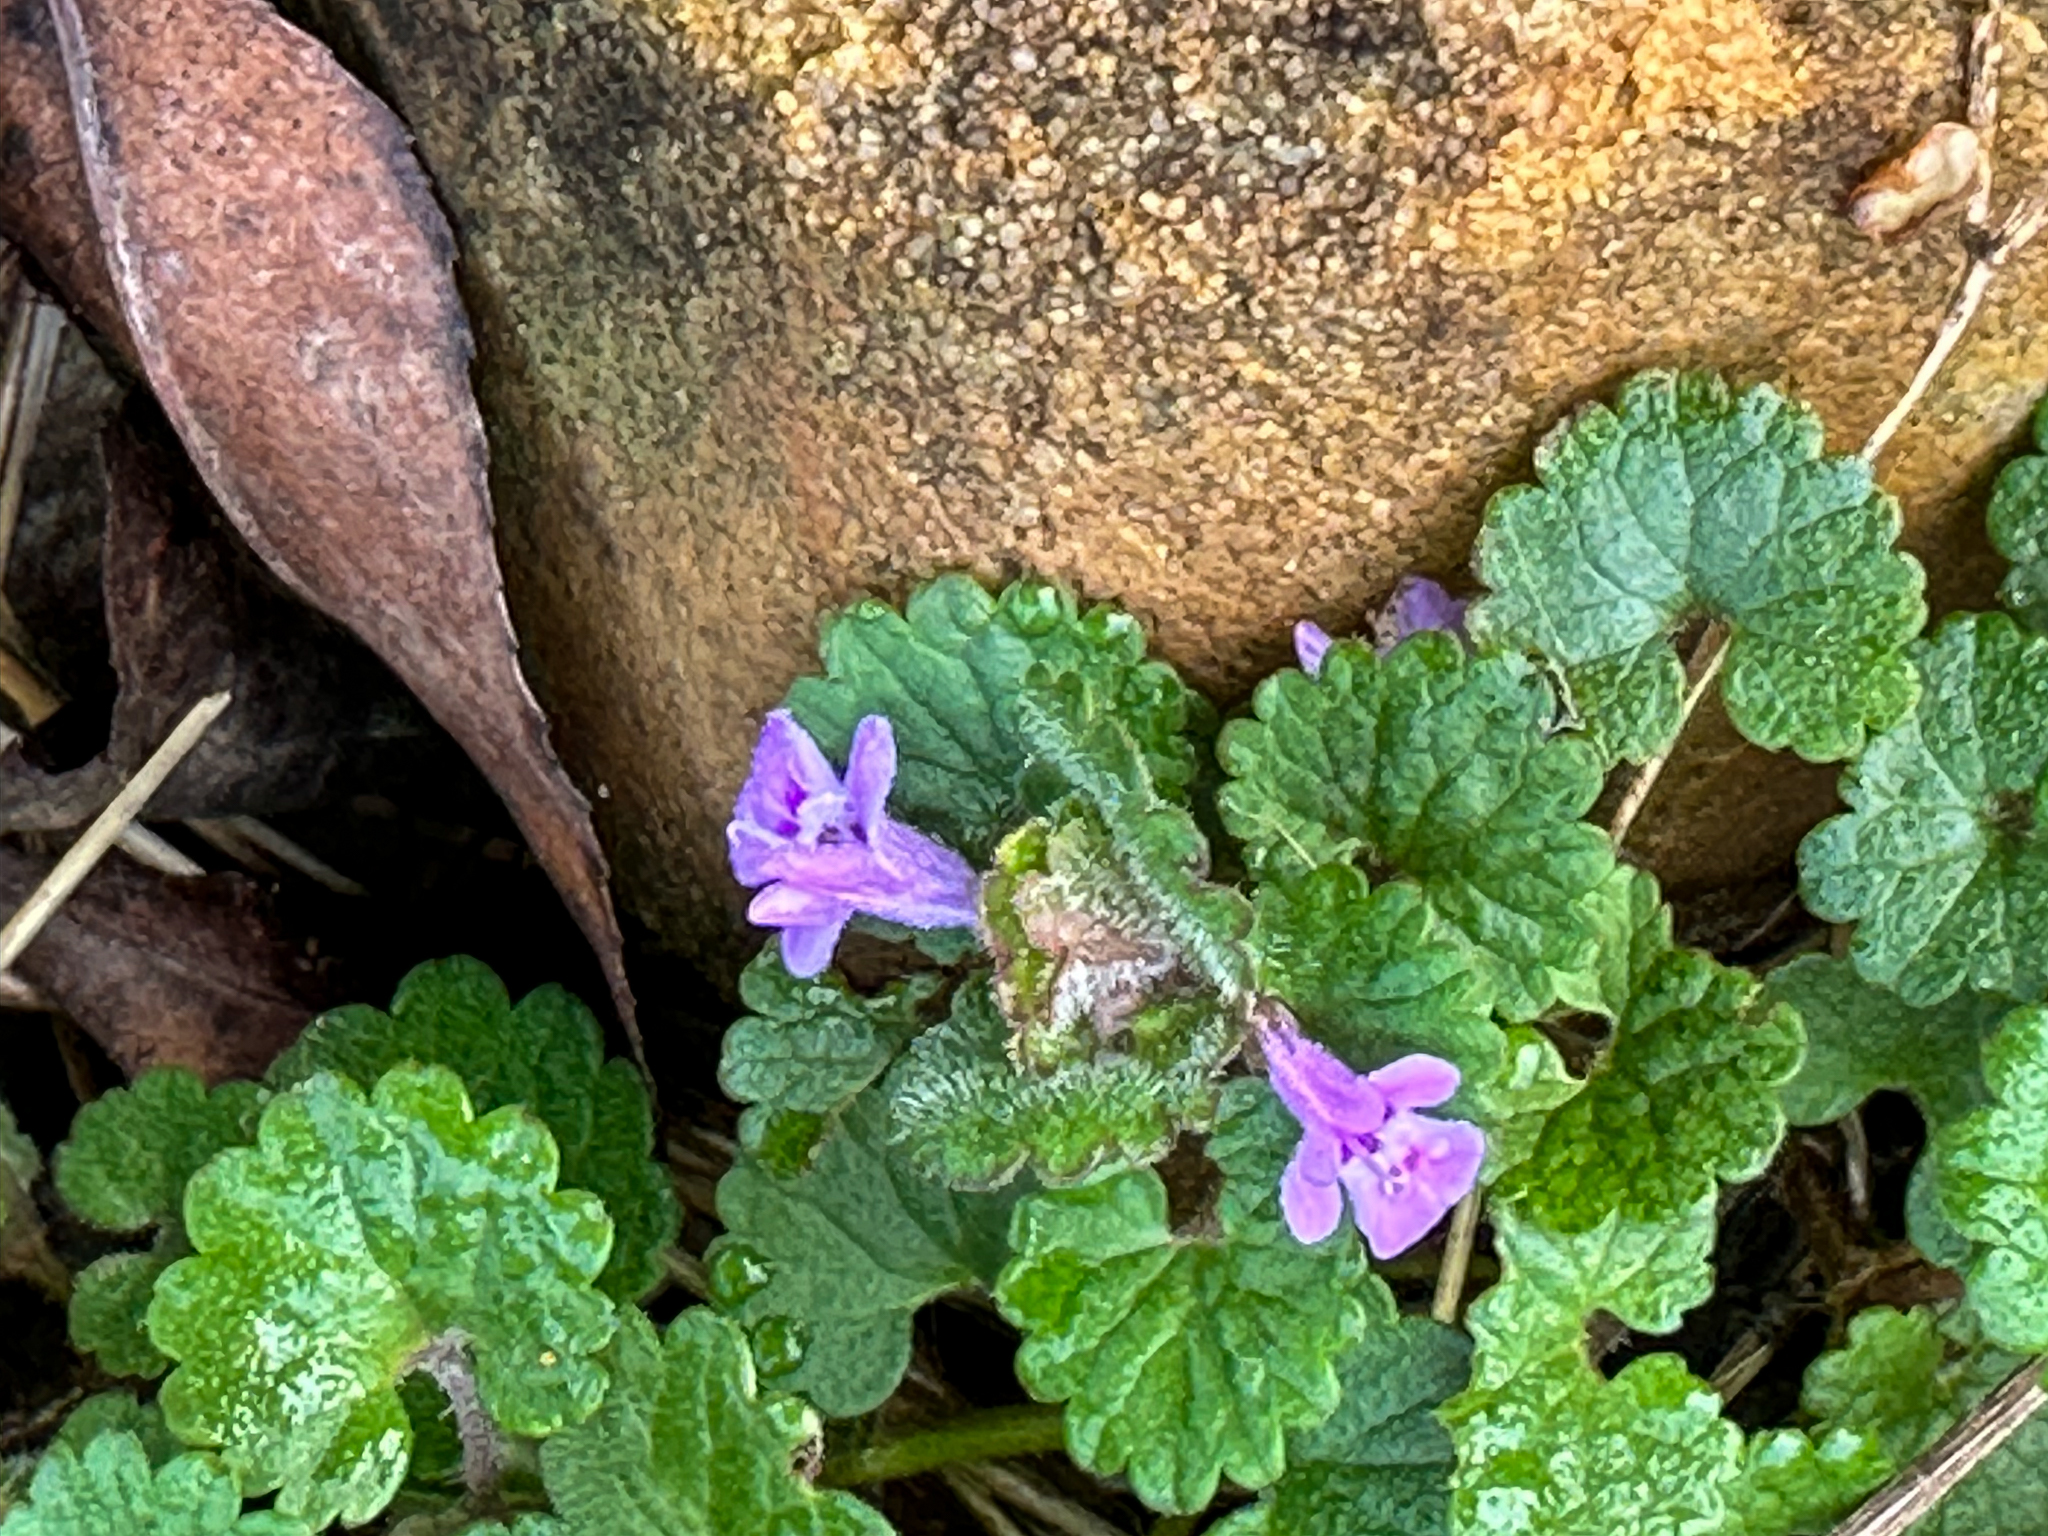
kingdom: Plantae
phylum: Tracheophyta
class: Magnoliopsida
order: Lamiales
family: Lamiaceae
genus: Glechoma
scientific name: Glechoma hederacea
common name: Ground ivy
